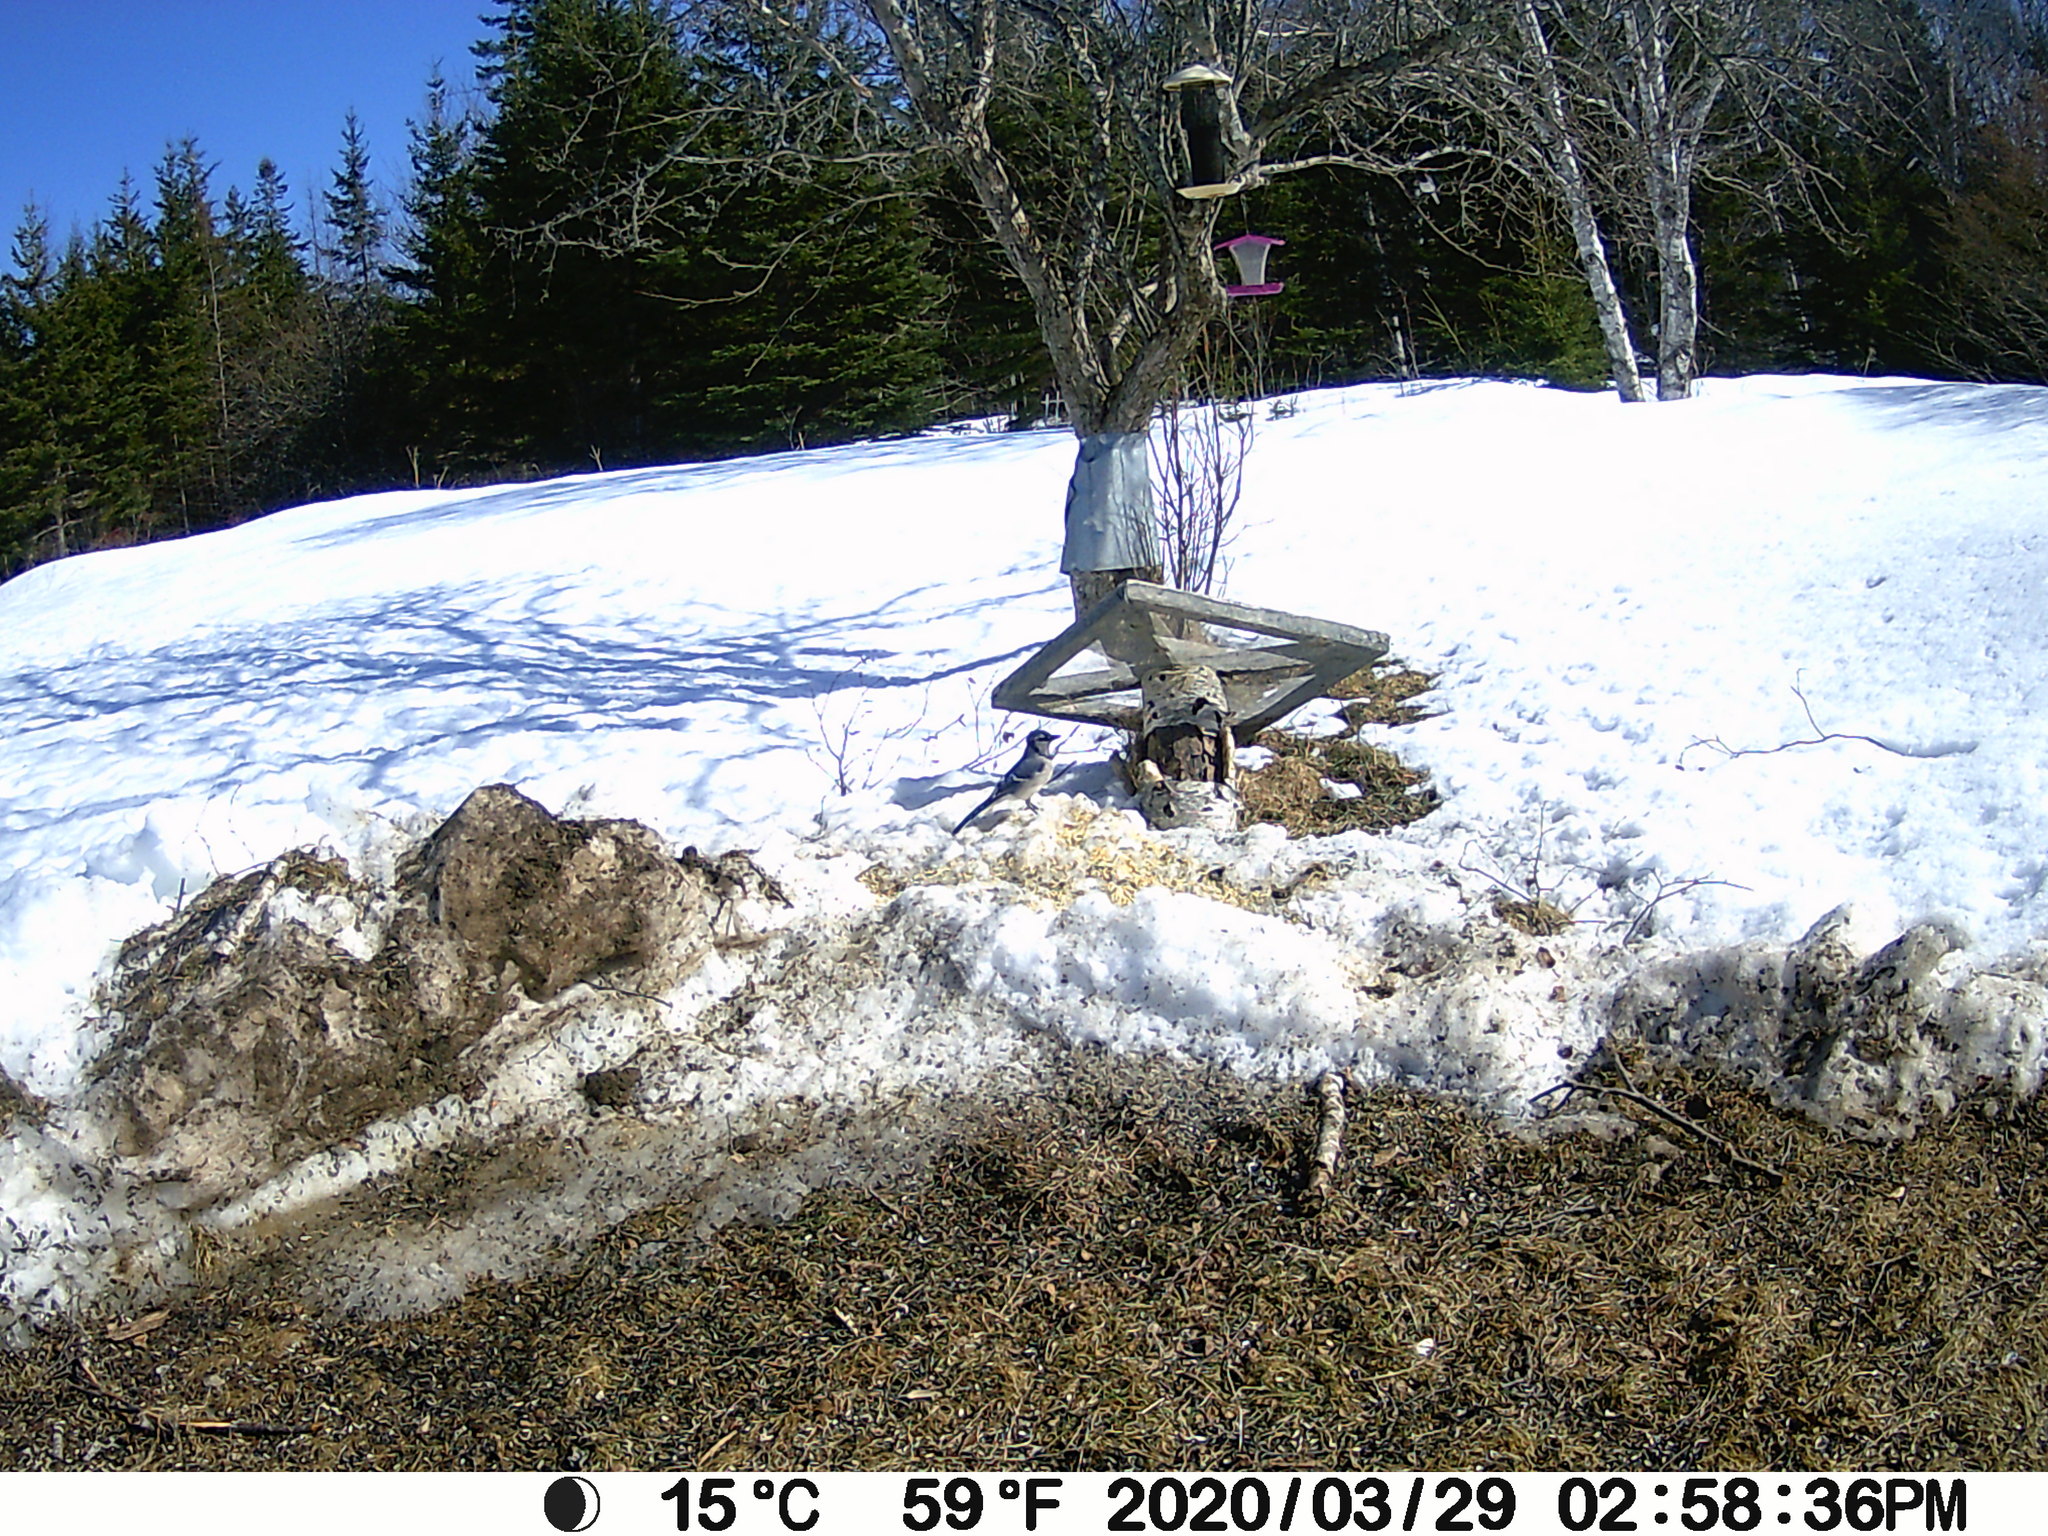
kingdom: Animalia
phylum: Chordata
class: Aves
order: Passeriformes
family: Corvidae
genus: Cyanocitta
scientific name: Cyanocitta cristata
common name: Blue jay
